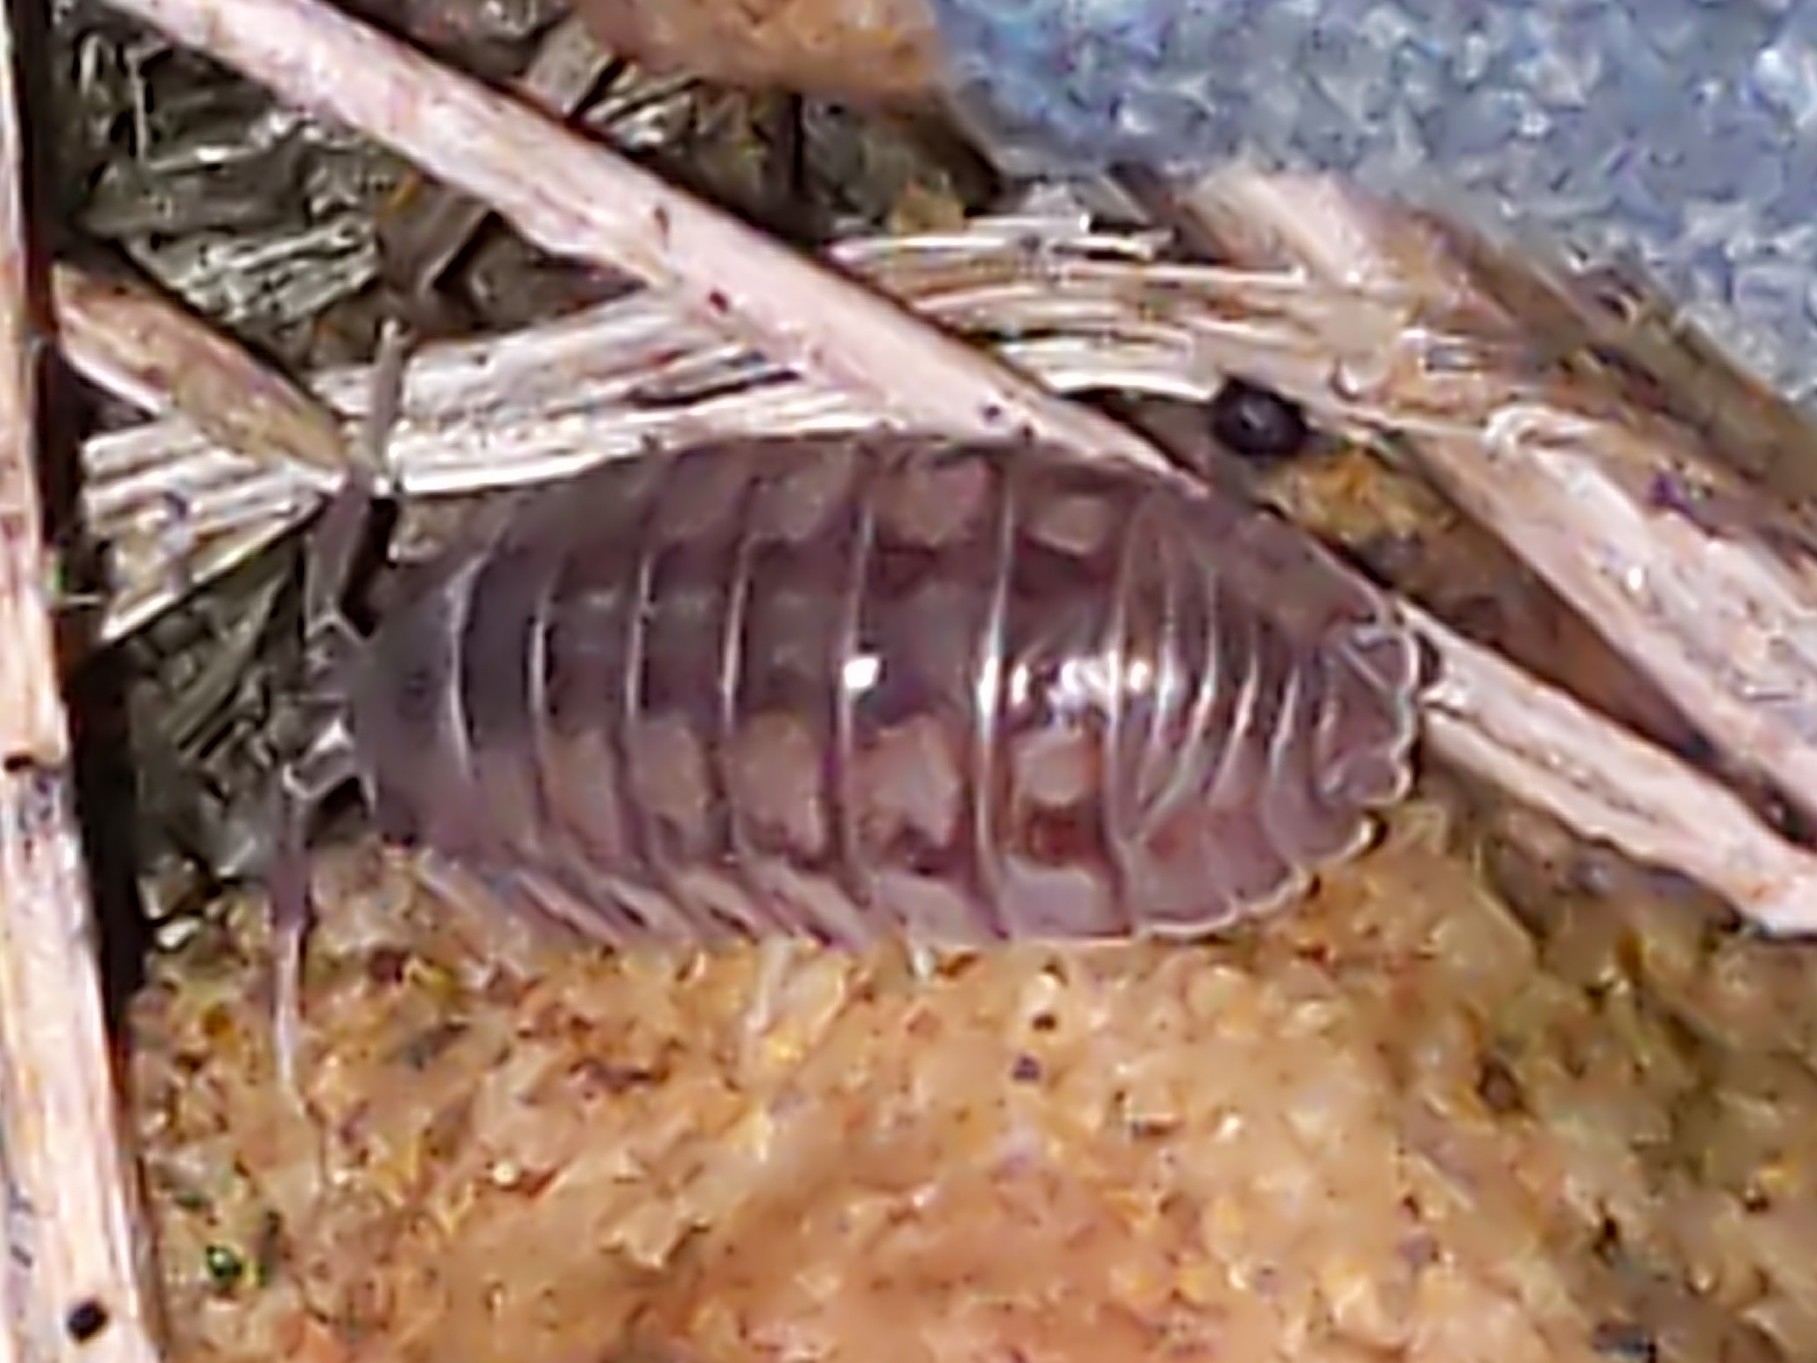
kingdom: Animalia
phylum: Arthropoda
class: Malacostraca
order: Isopoda
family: Armadillidiidae
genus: Armadillidium
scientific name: Armadillidium nasatum
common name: Isopod
